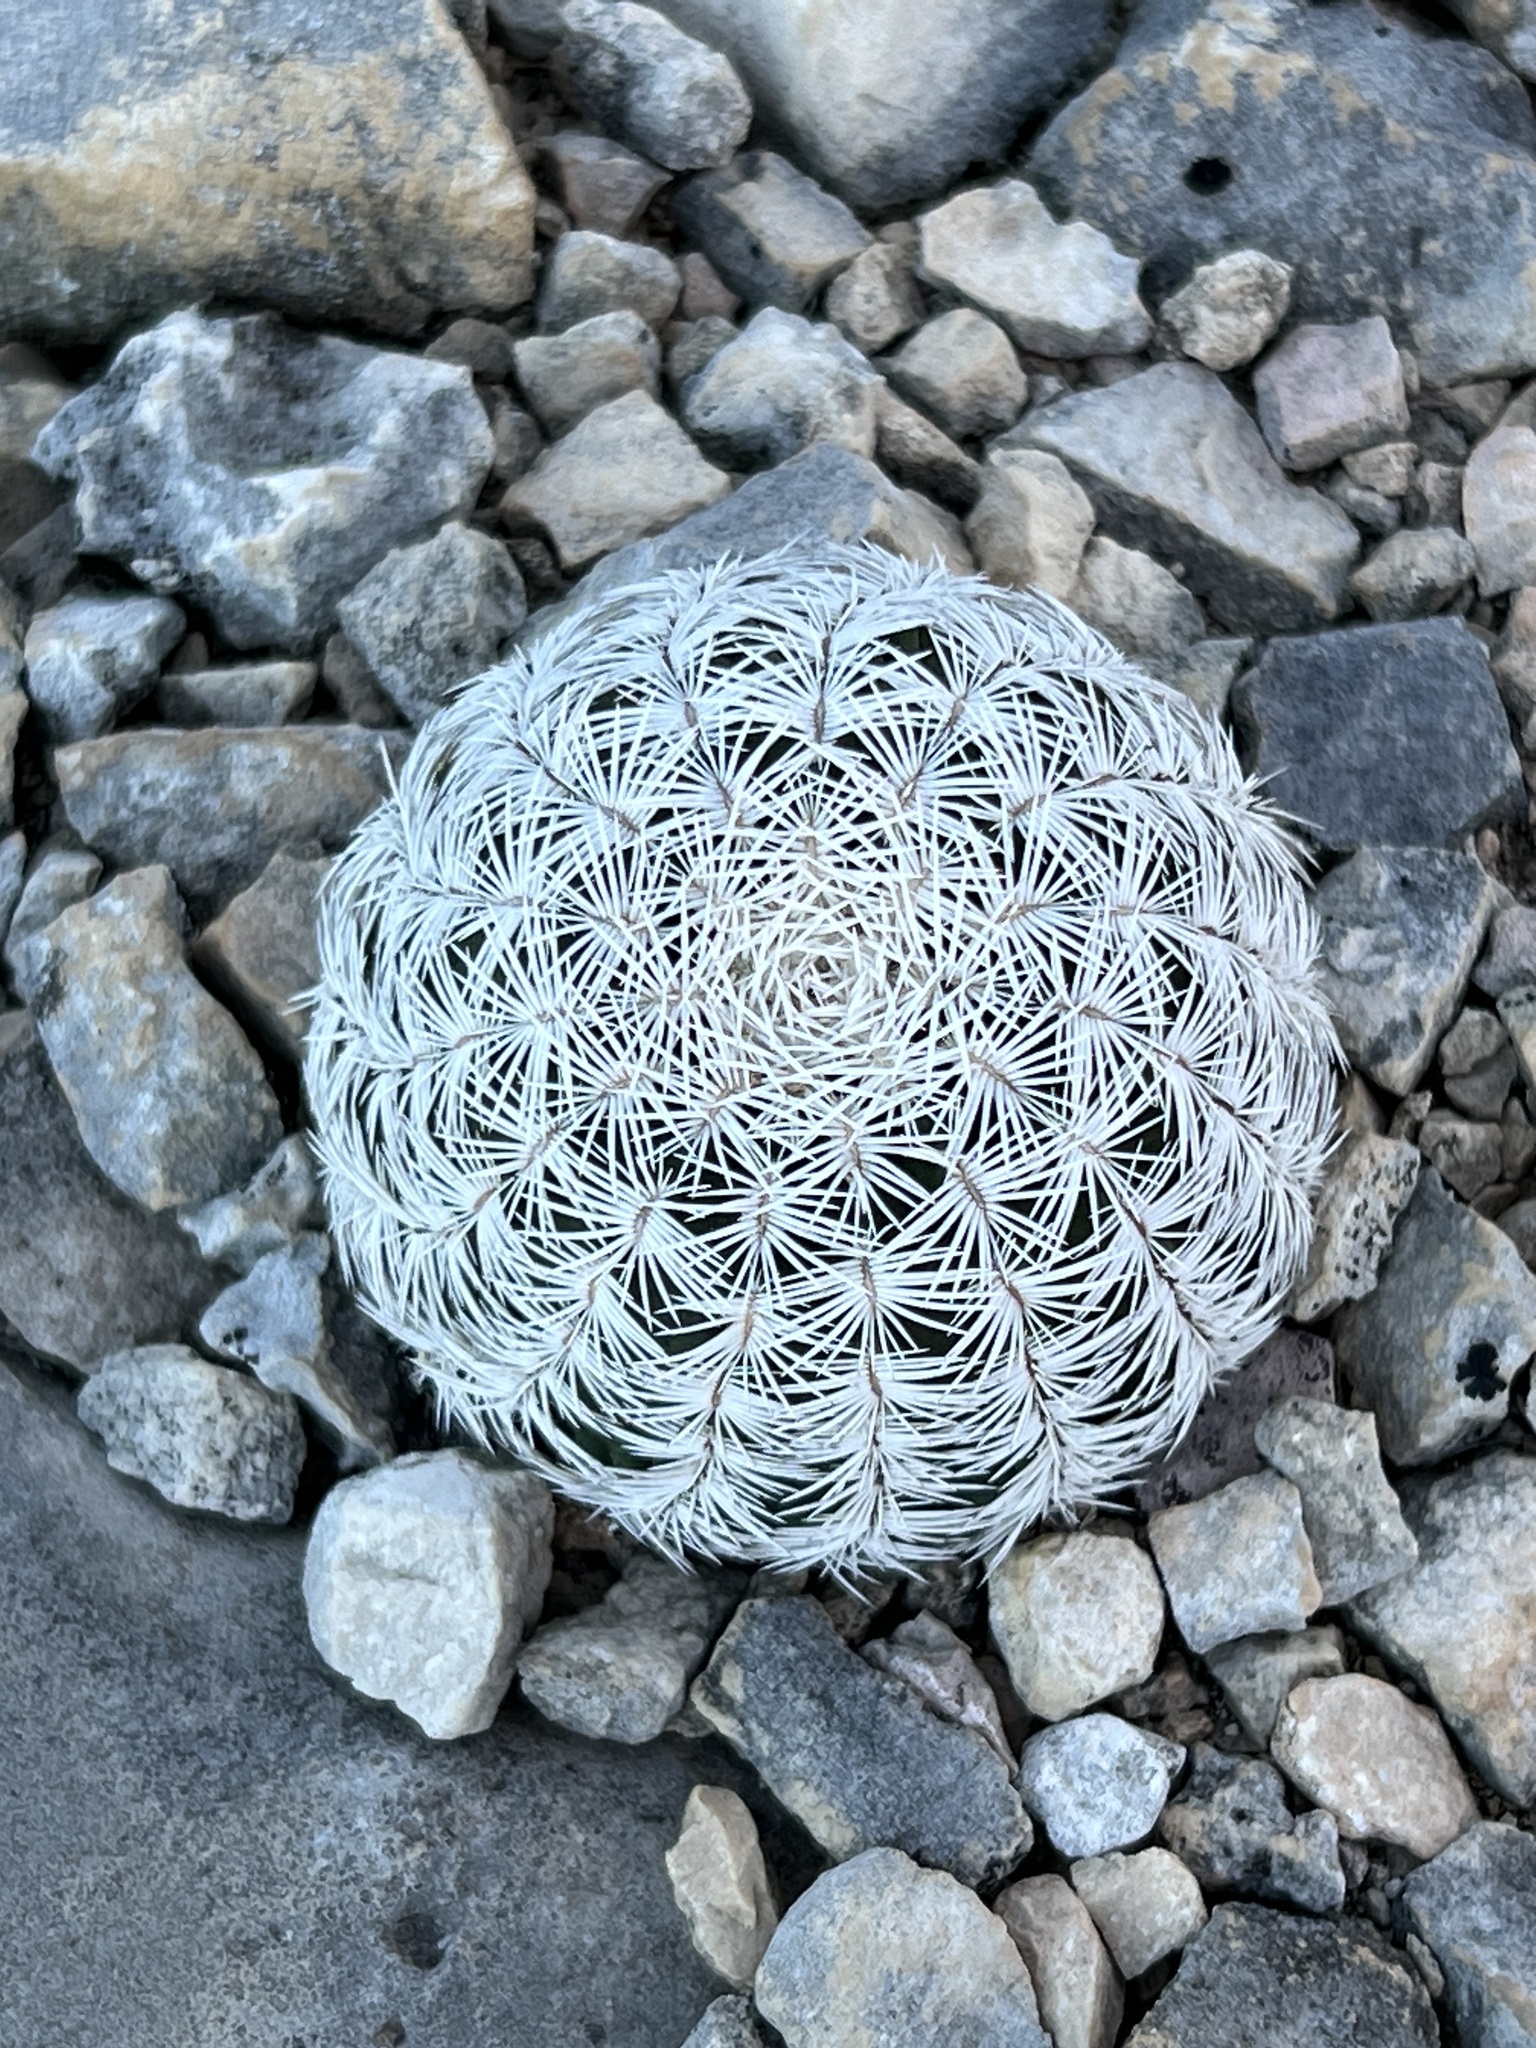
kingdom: Plantae
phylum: Tracheophyta
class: Magnoliopsida
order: Caryophyllales
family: Cactaceae
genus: Echinocereus
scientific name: Echinocereus reichenbachii
